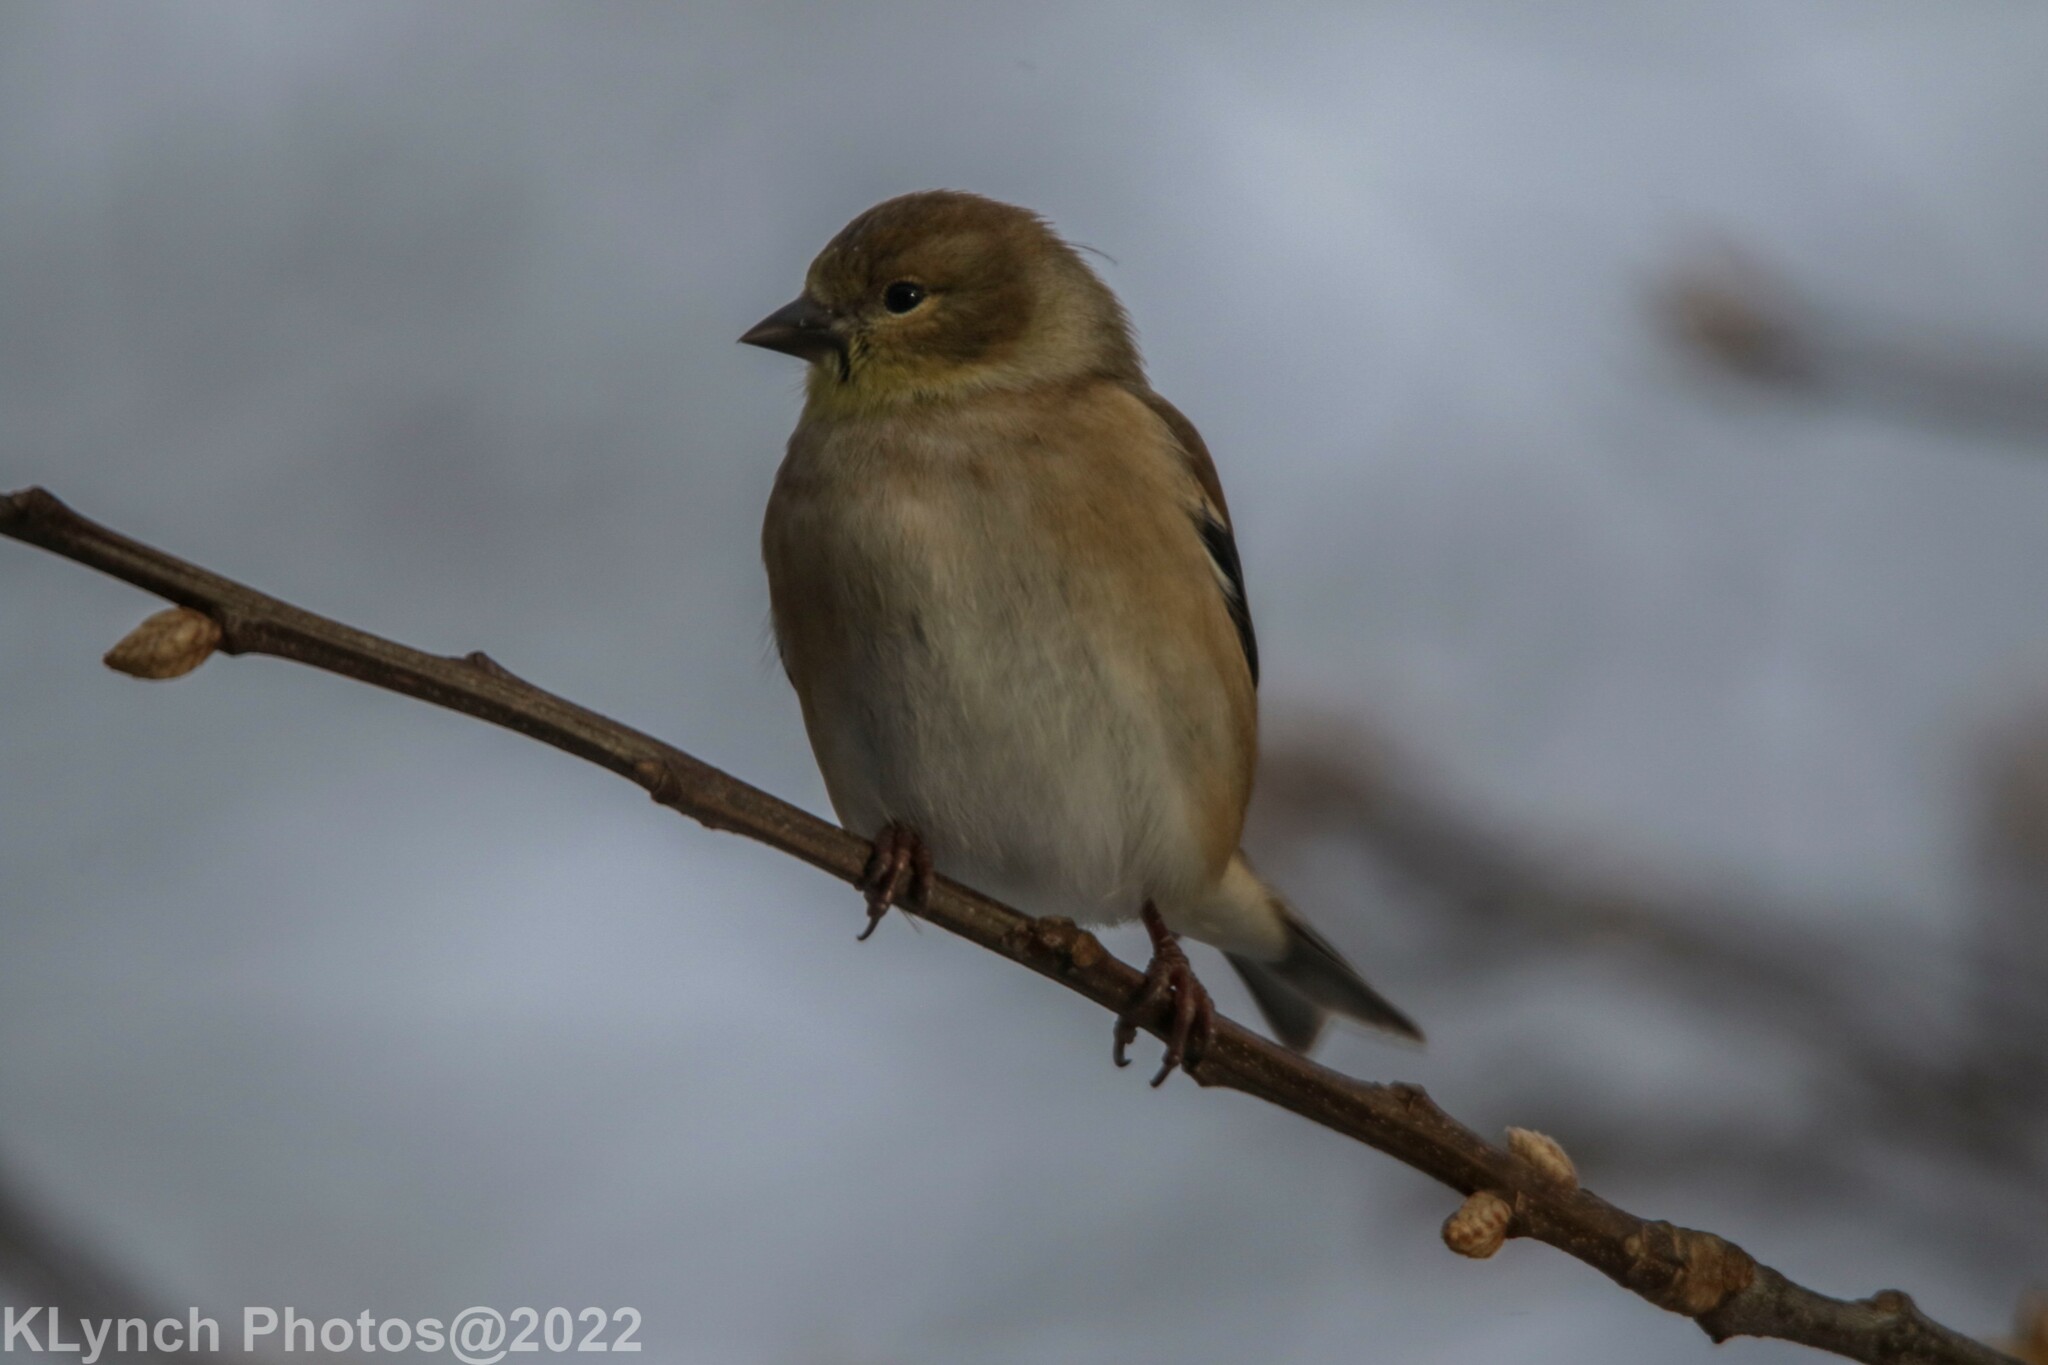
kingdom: Animalia
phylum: Chordata
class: Aves
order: Passeriformes
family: Fringillidae
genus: Spinus
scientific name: Spinus tristis
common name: American goldfinch
